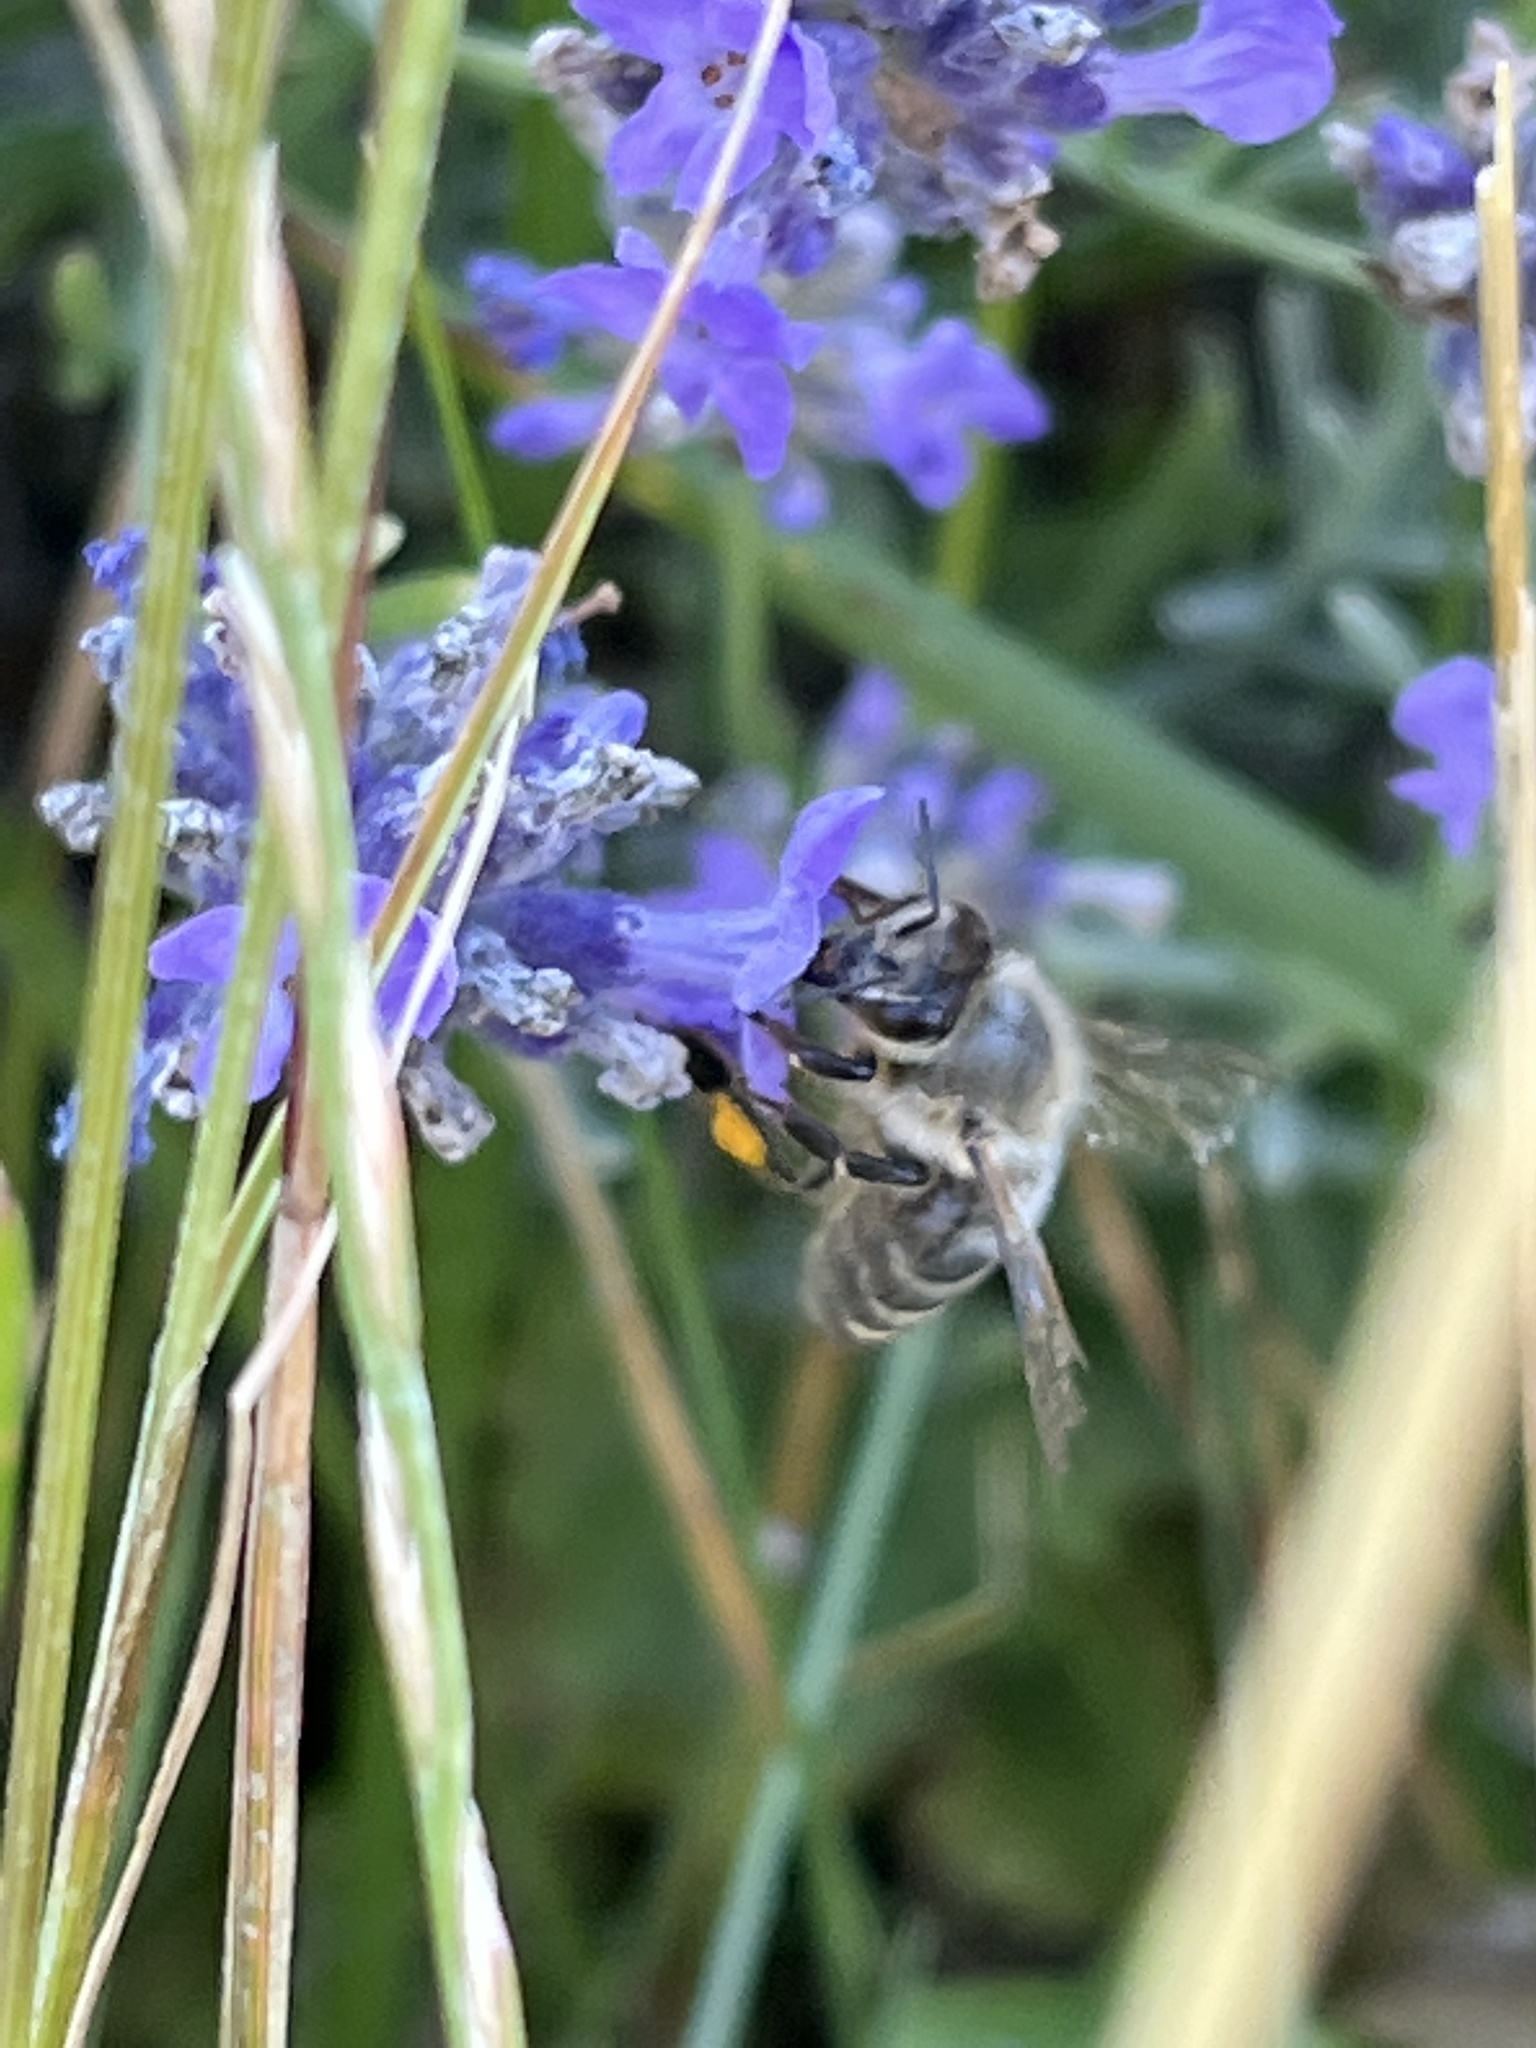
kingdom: Animalia
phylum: Arthropoda
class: Insecta
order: Hymenoptera
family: Apidae
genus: Apis
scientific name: Apis mellifera
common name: Honey bee
